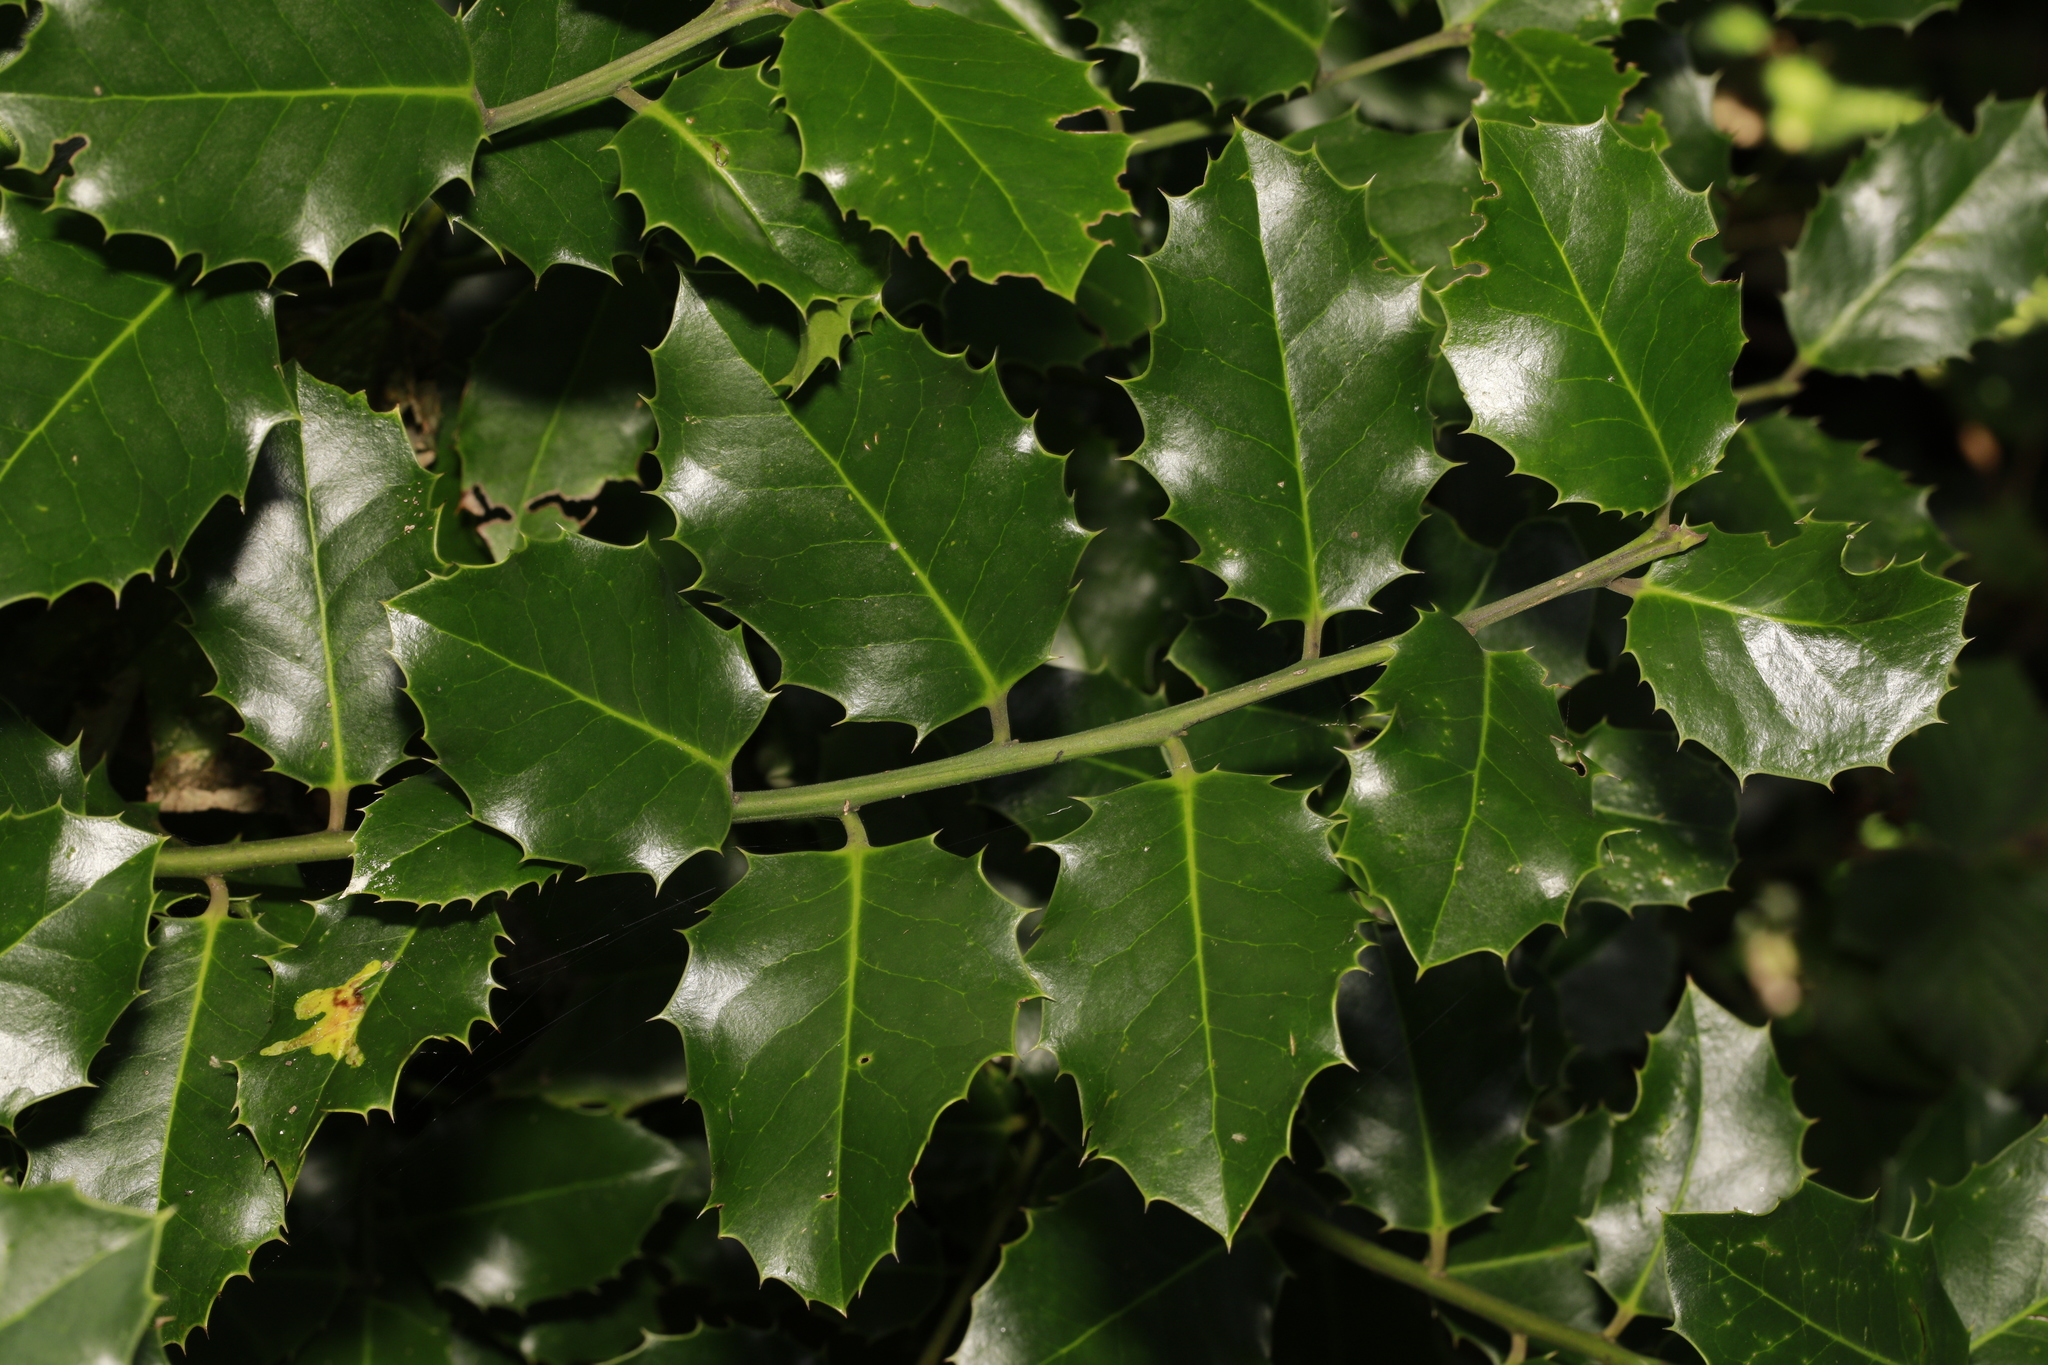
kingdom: Plantae
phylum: Tracheophyta
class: Magnoliopsida
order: Aquifoliales
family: Aquifoliaceae
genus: Ilex
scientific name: Ilex aquifolium
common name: English holly
